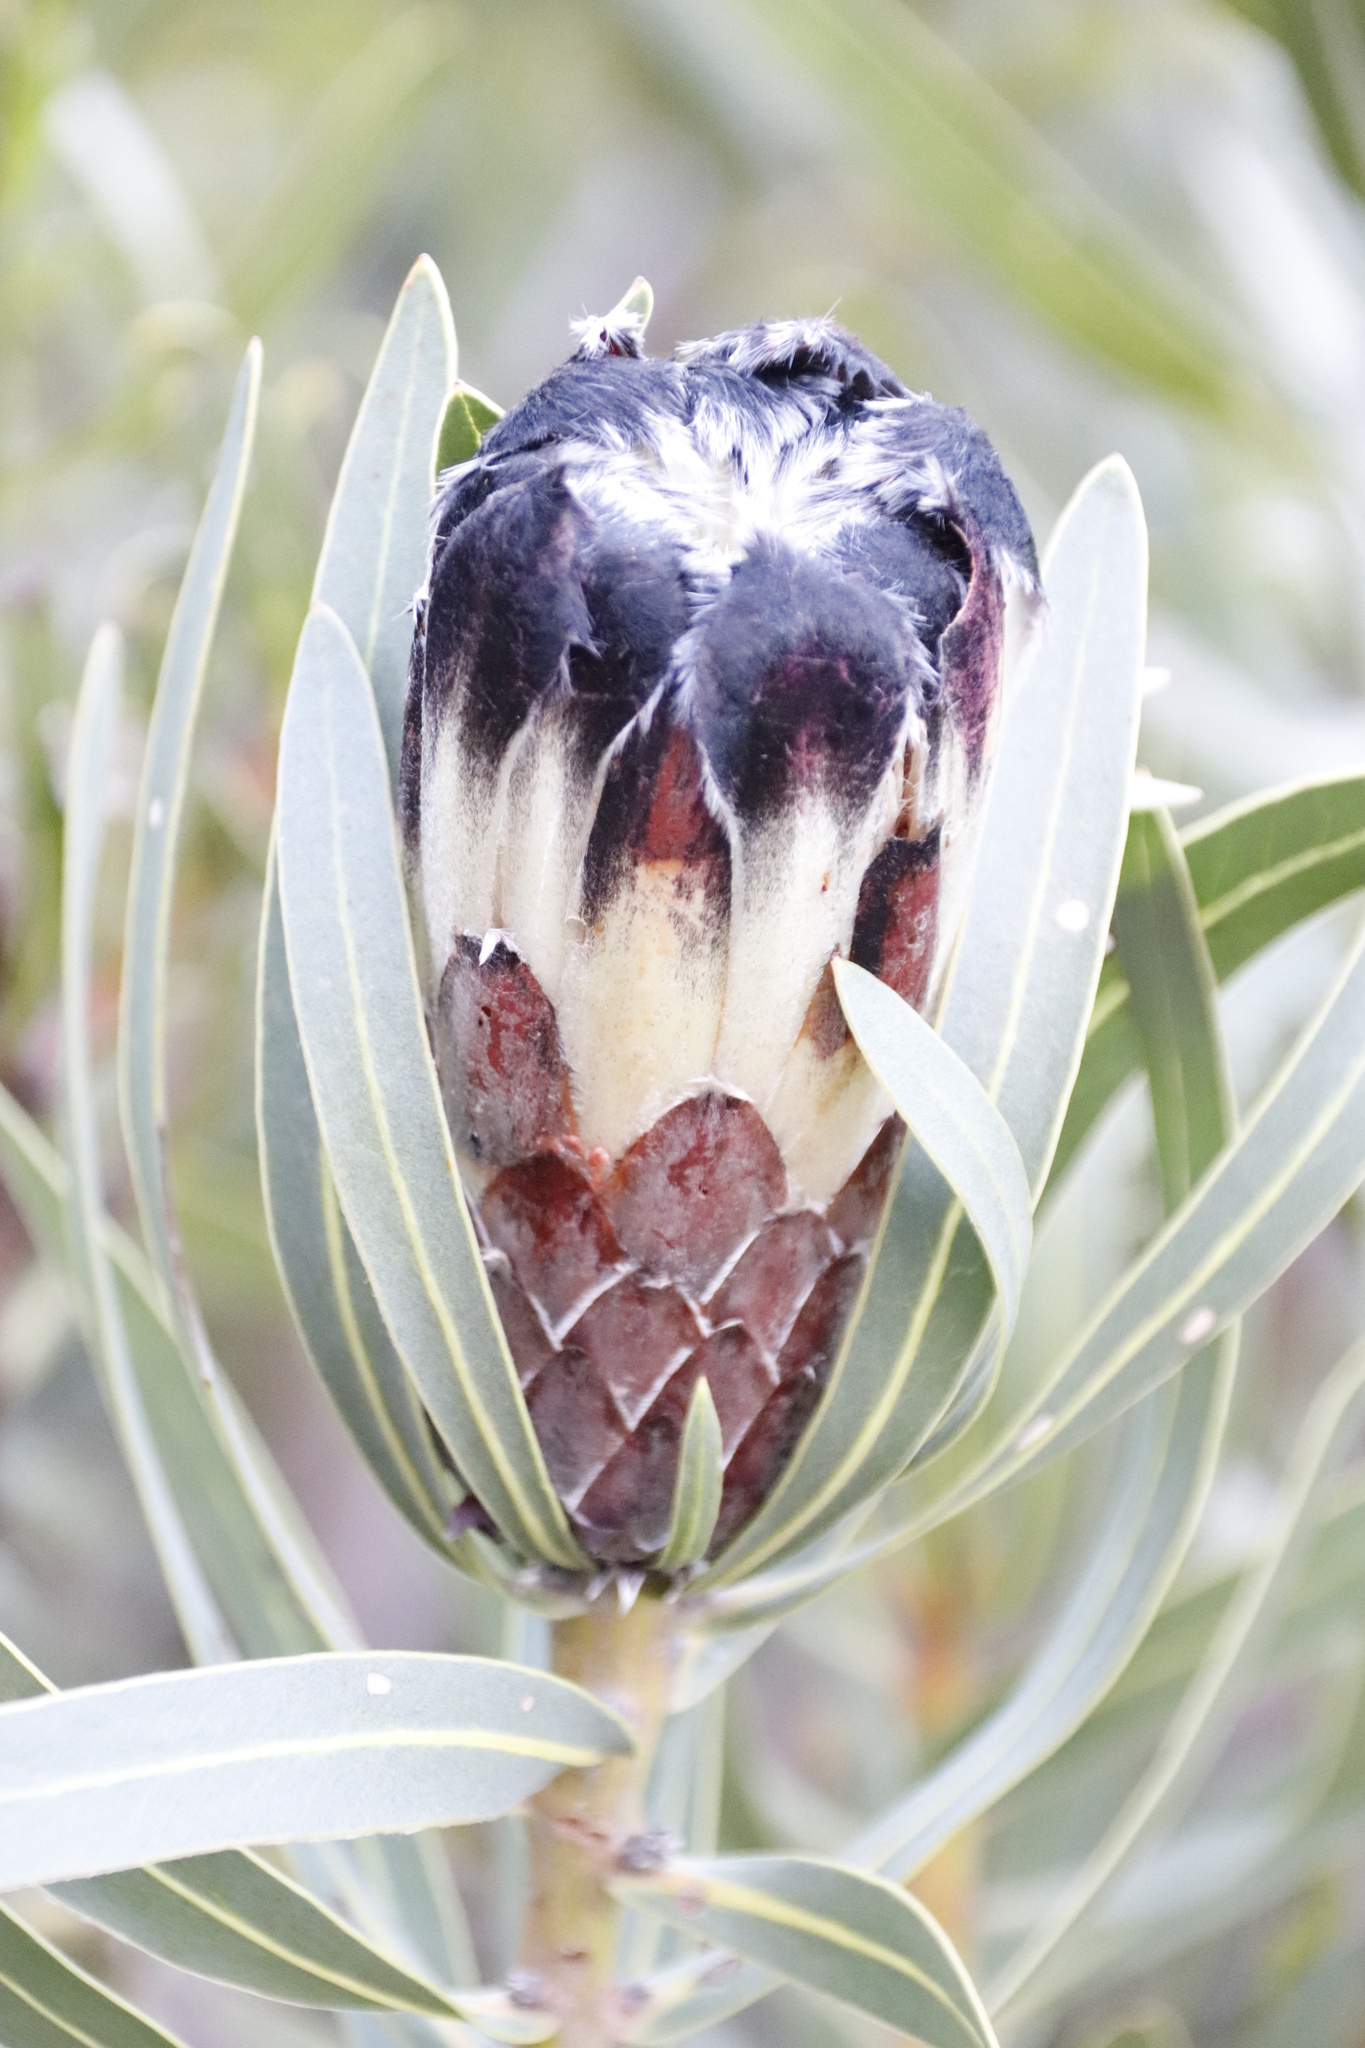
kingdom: Plantae
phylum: Tracheophyta
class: Magnoliopsida
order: Proteales
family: Proteaceae
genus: Protea
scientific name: Protea lepidocarpodendron
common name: Black-bearded protea
